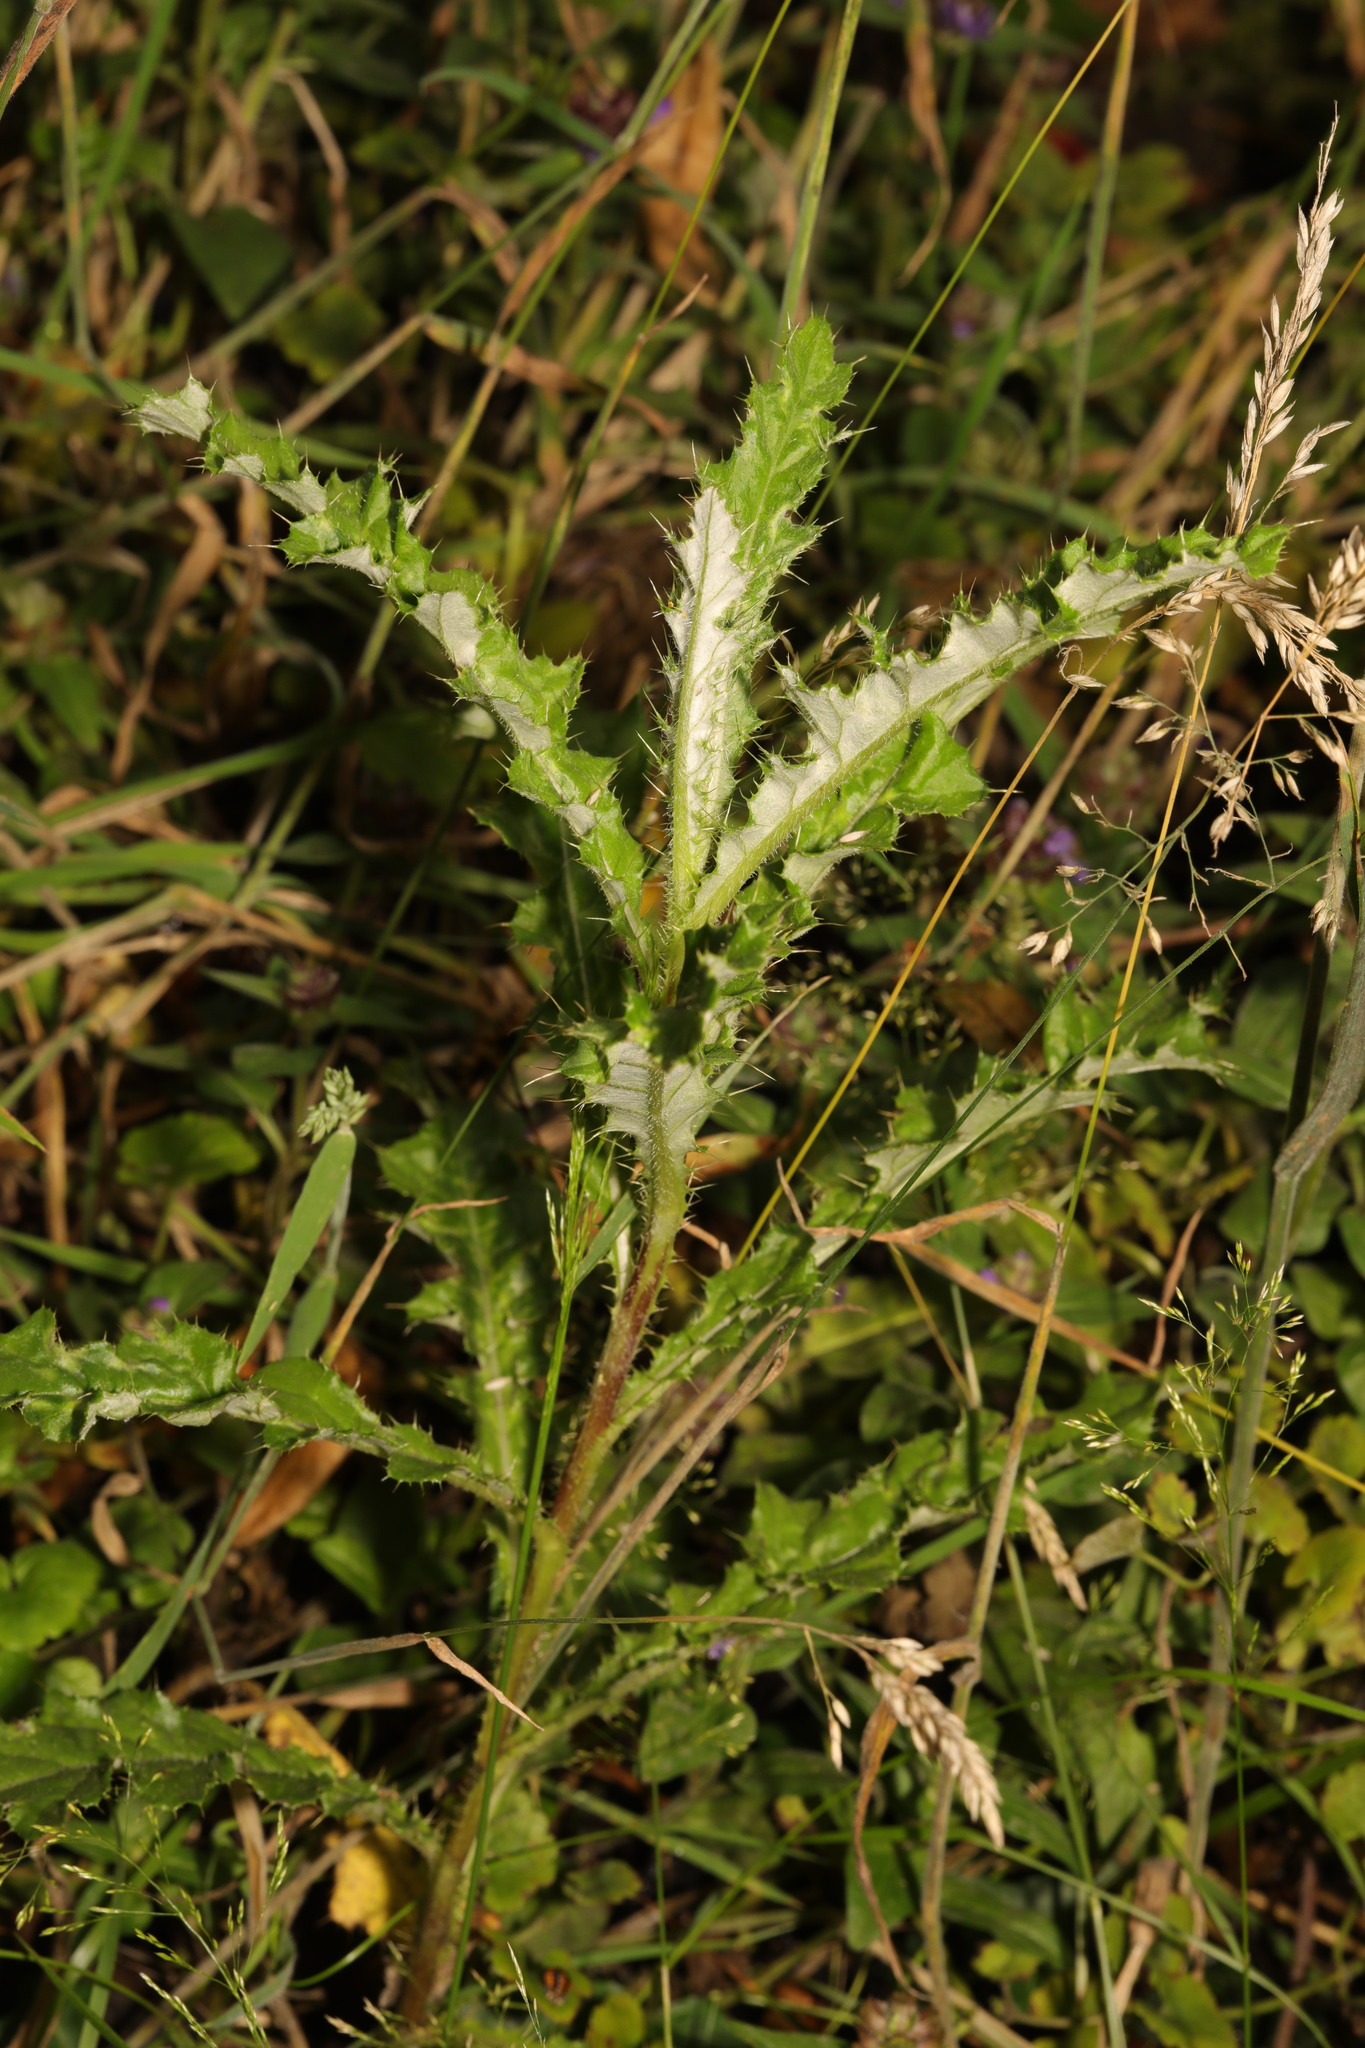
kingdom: Plantae
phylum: Tracheophyta
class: Magnoliopsida
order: Asterales
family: Asteraceae
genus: Cirsium
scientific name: Cirsium arvense
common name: Creeping thistle
